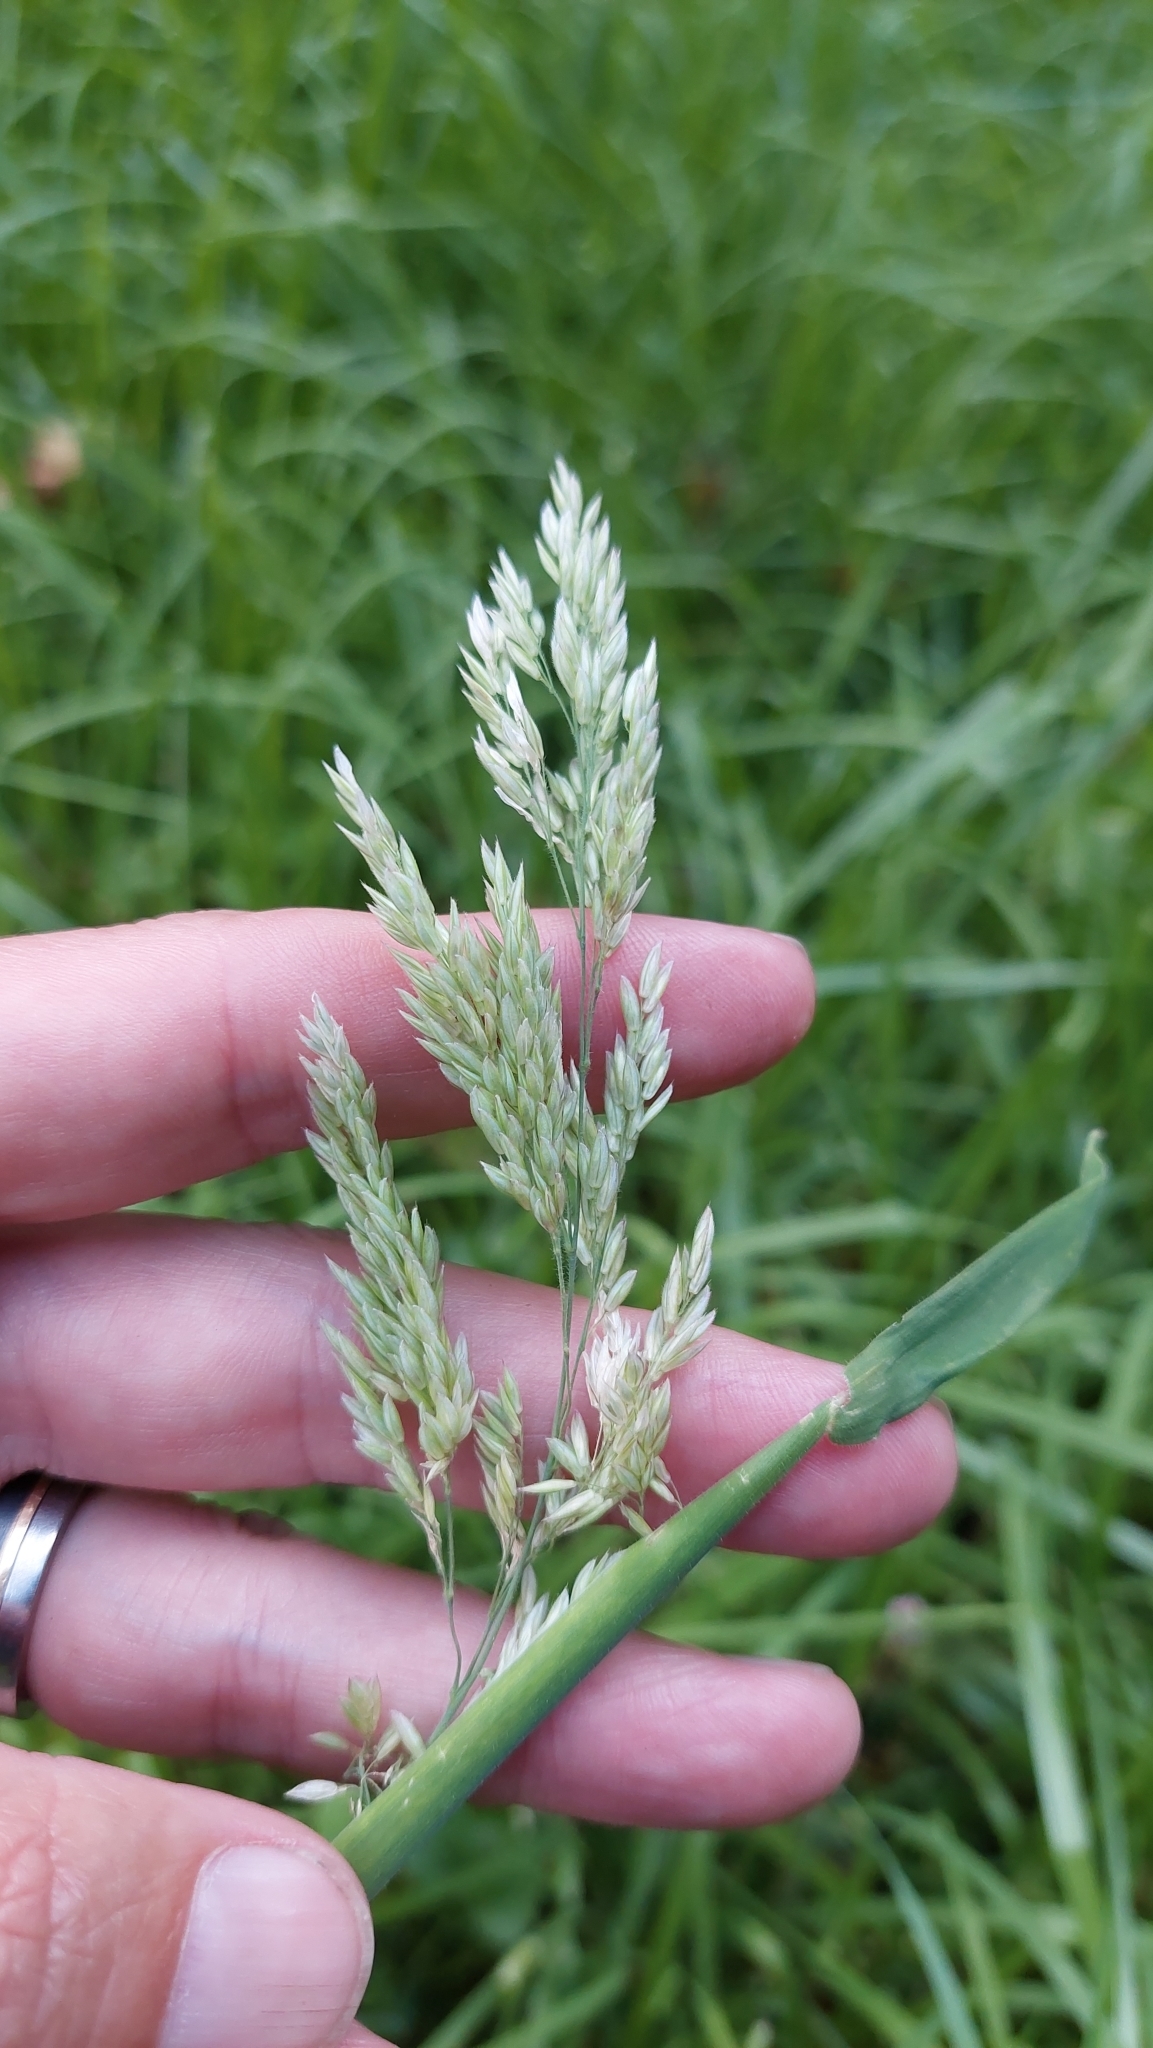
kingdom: Plantae
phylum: Tracheophyta
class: Liliopsida
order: Poales
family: Poaceae
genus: Holcus
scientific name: Holcus lanatus
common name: Yorkshire-fog
